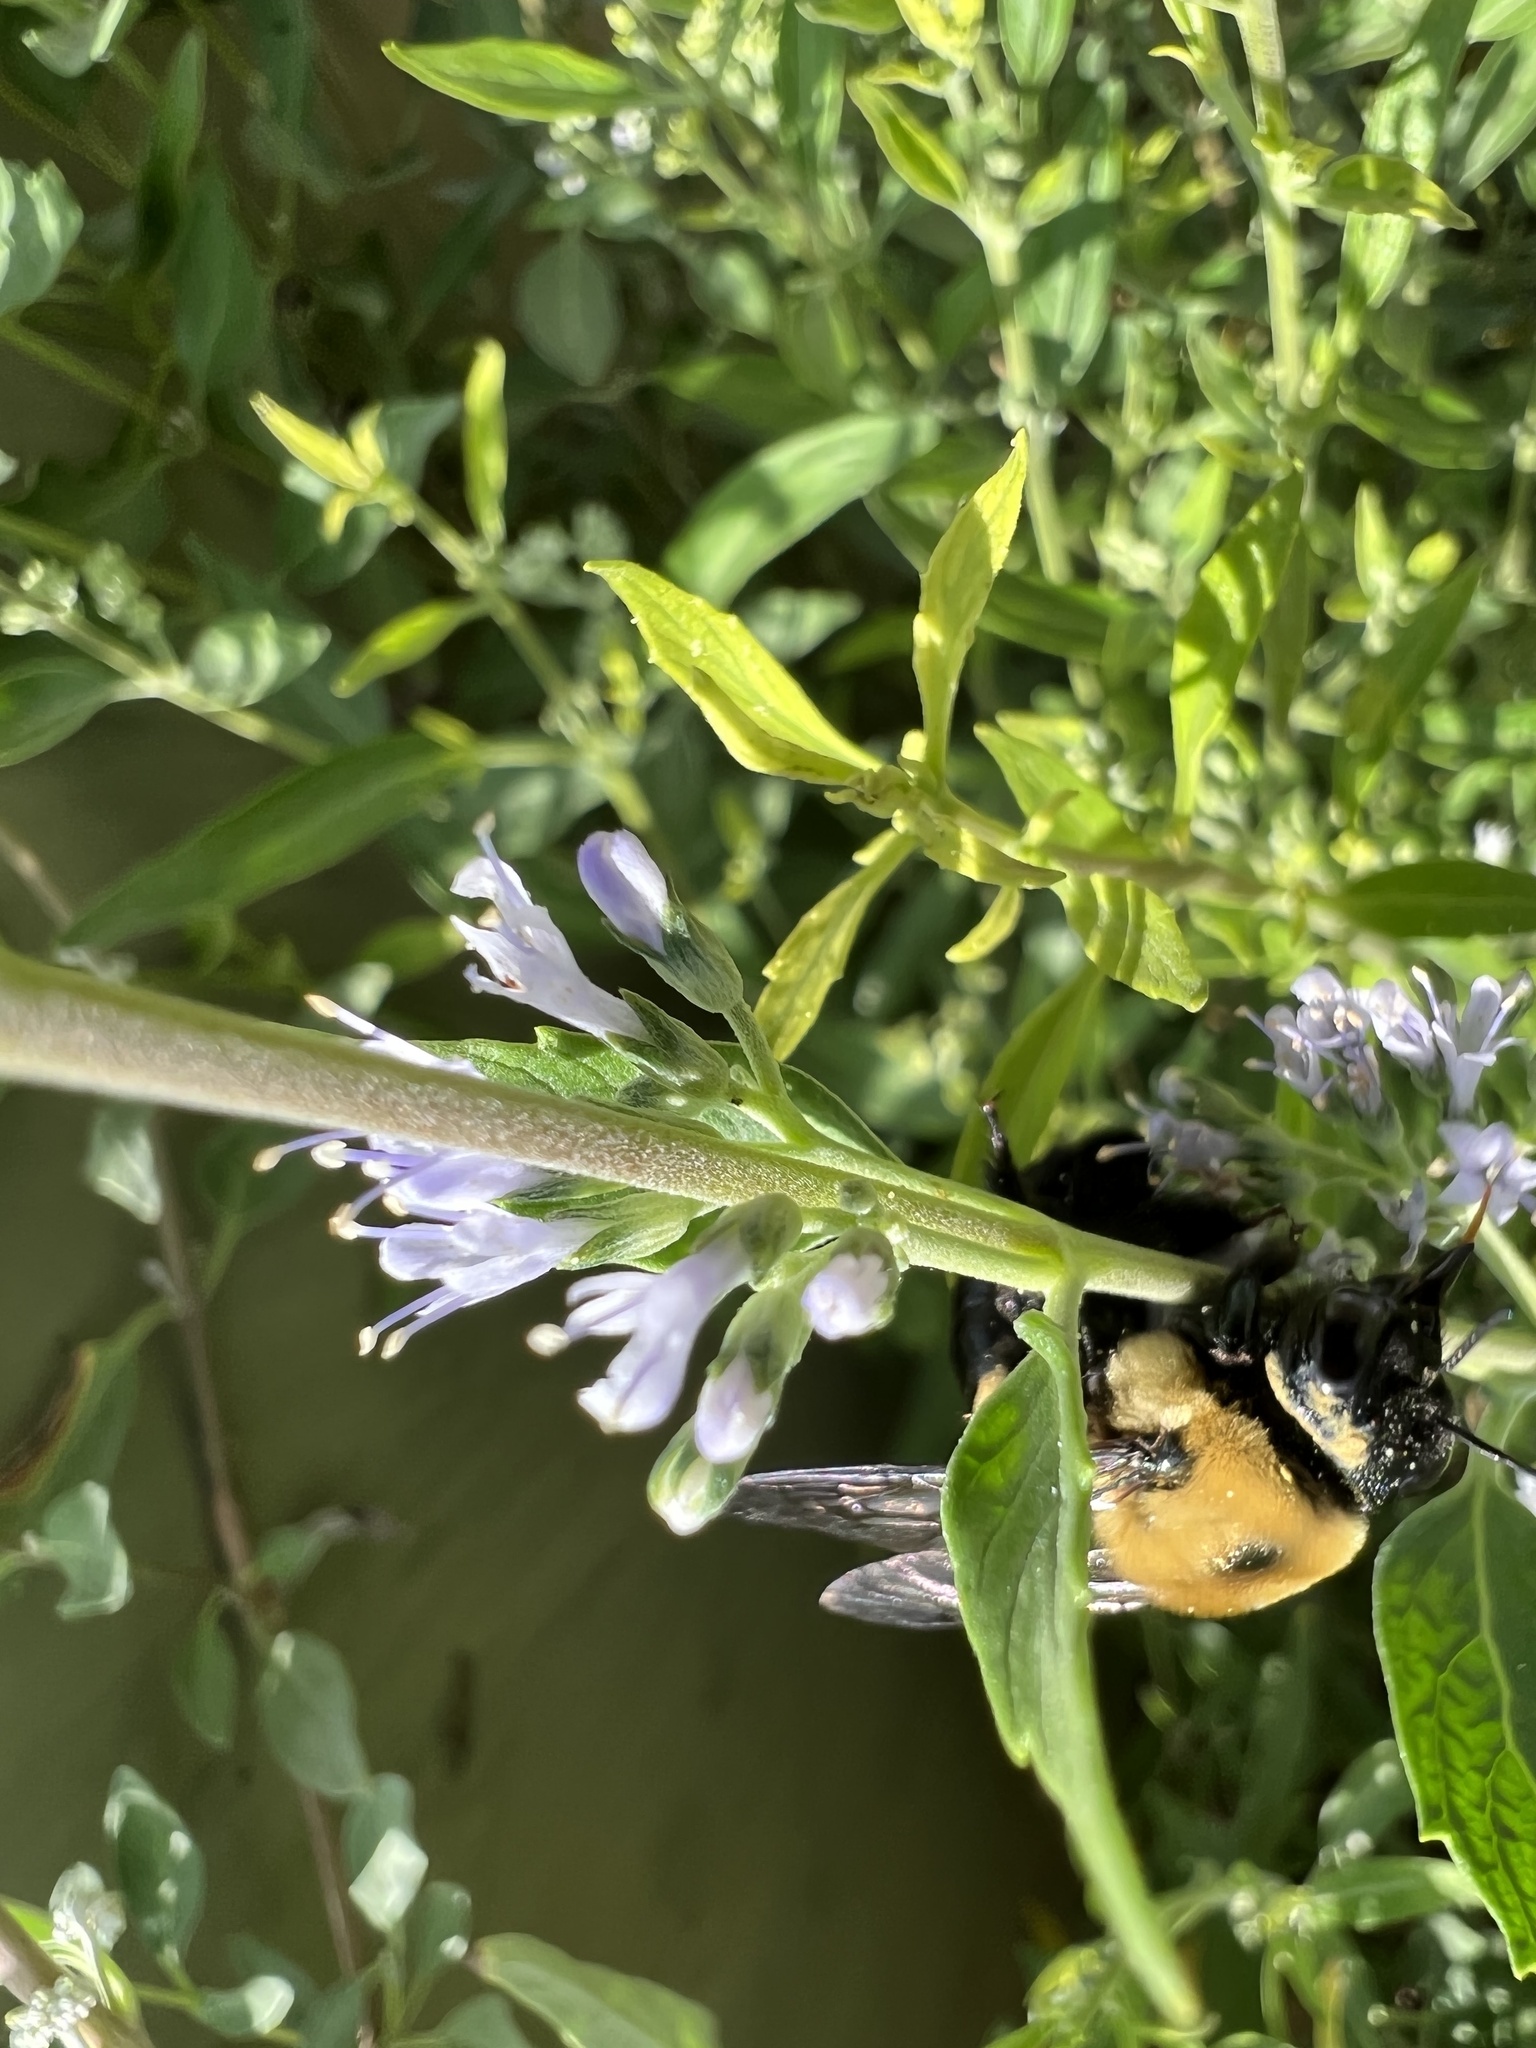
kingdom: Animalia
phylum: Arthropoda
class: Insecta
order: Hymenoptera
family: Apidae
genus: Xylocopa
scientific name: Xylocopa virginica
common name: Carpenter bee
